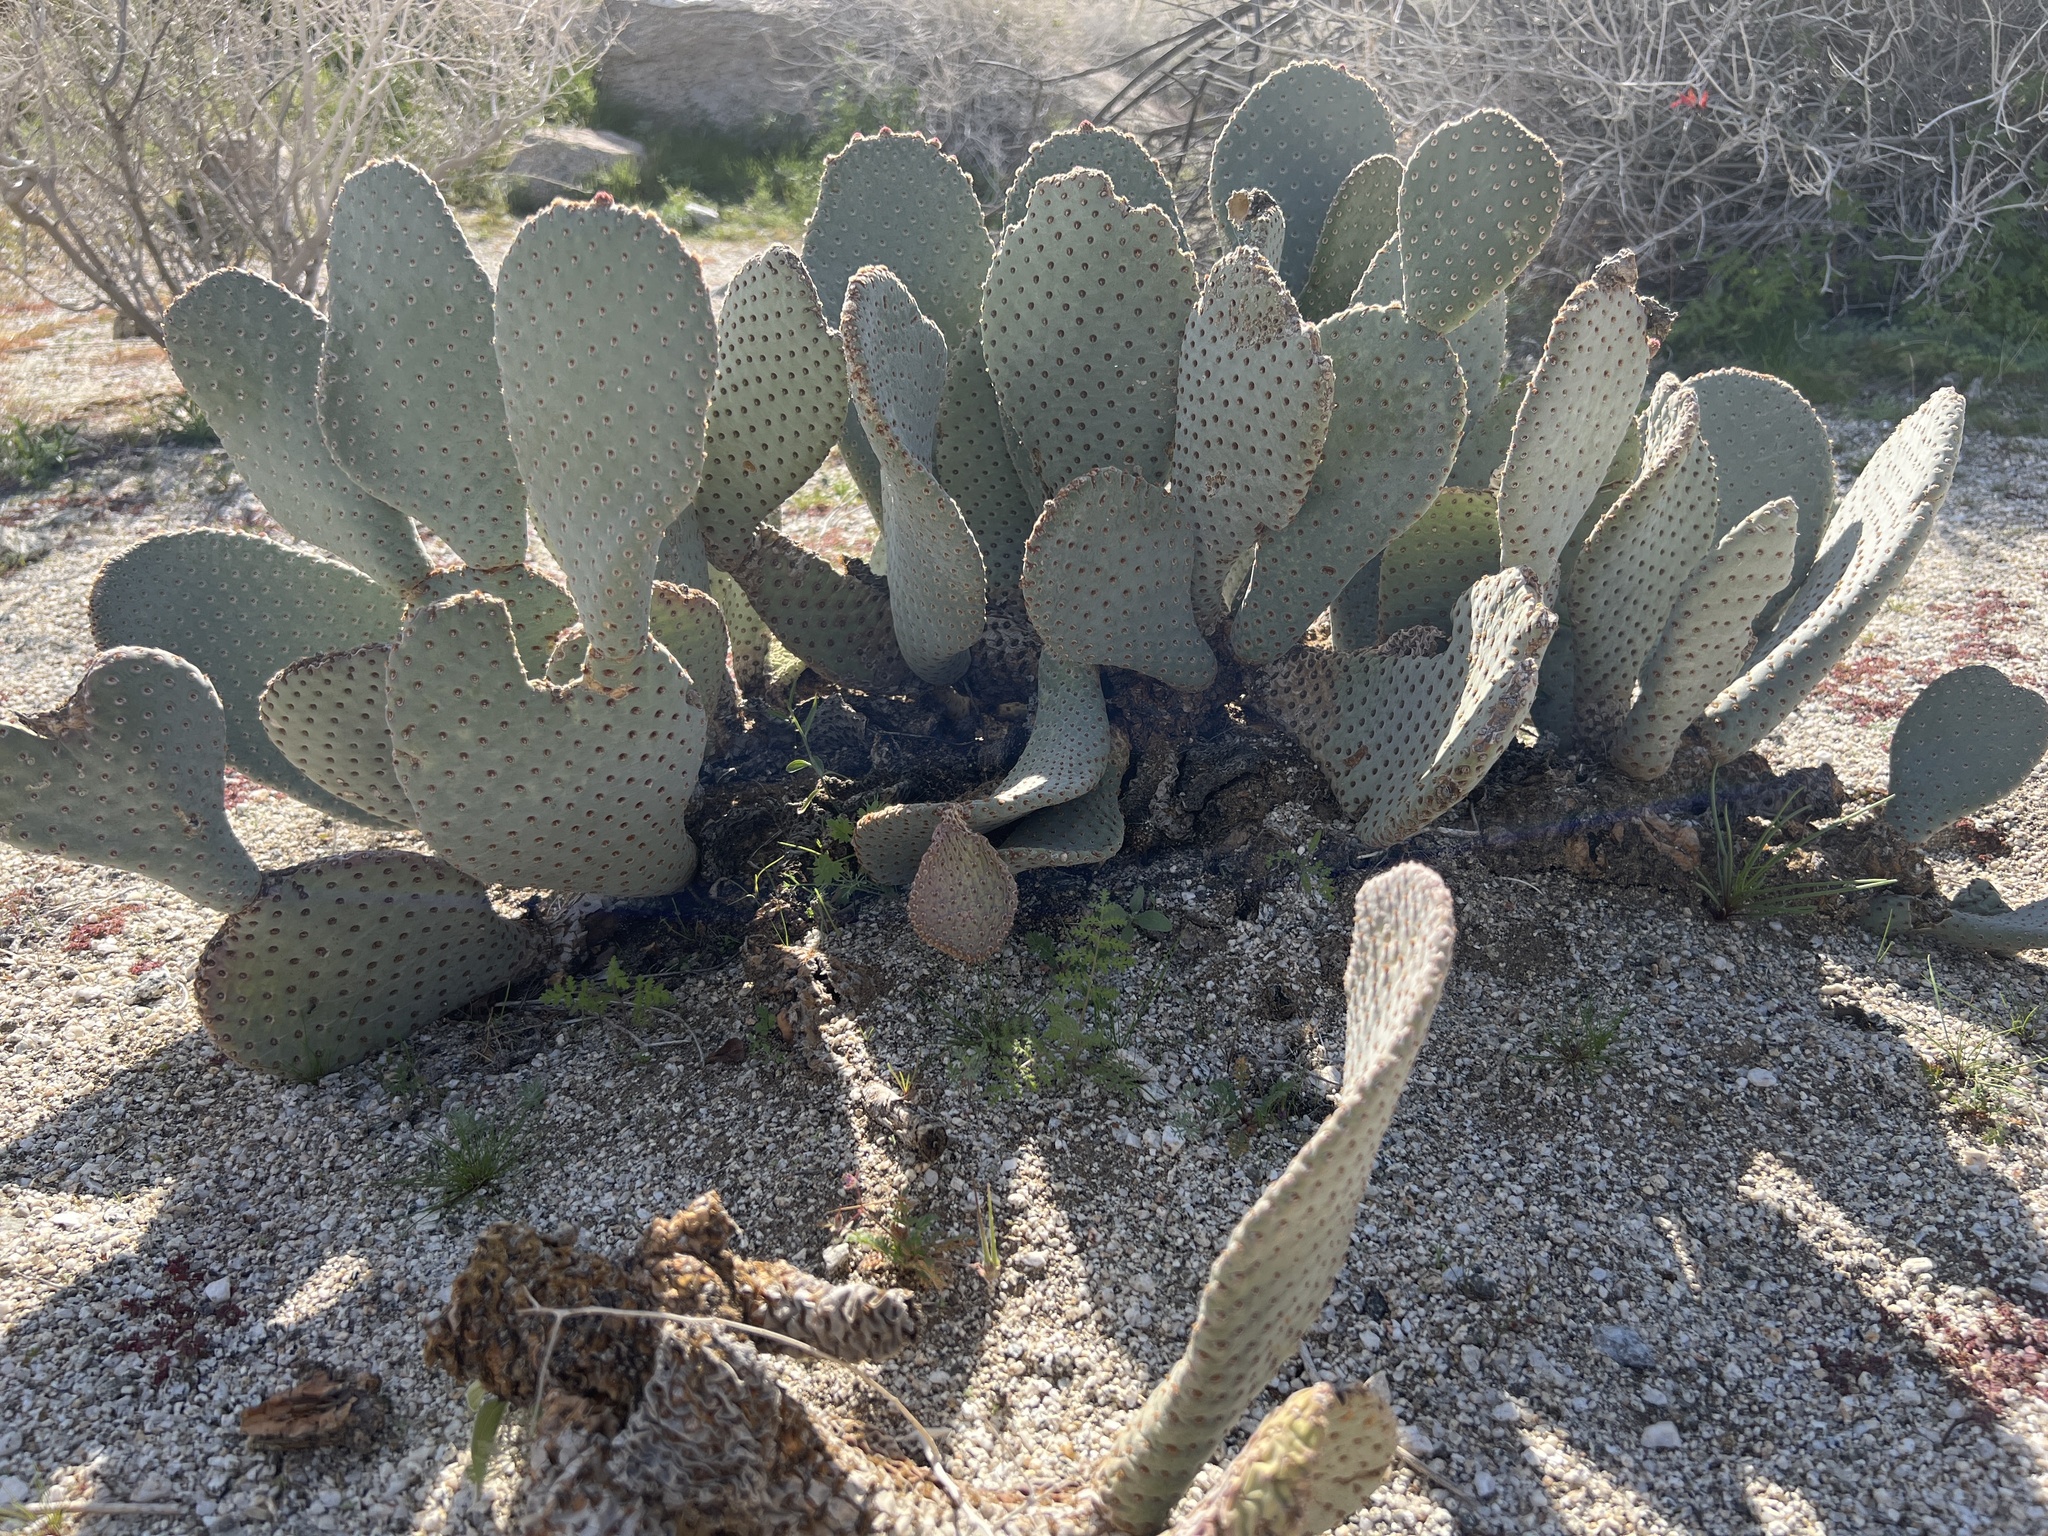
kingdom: Plantae
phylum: Tracheophyta
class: Magnoliopsida
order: Caryophyllales
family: Cactaceae
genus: Opuntia
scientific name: Opuntia basilaris
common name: Beavertail prickly-pear
